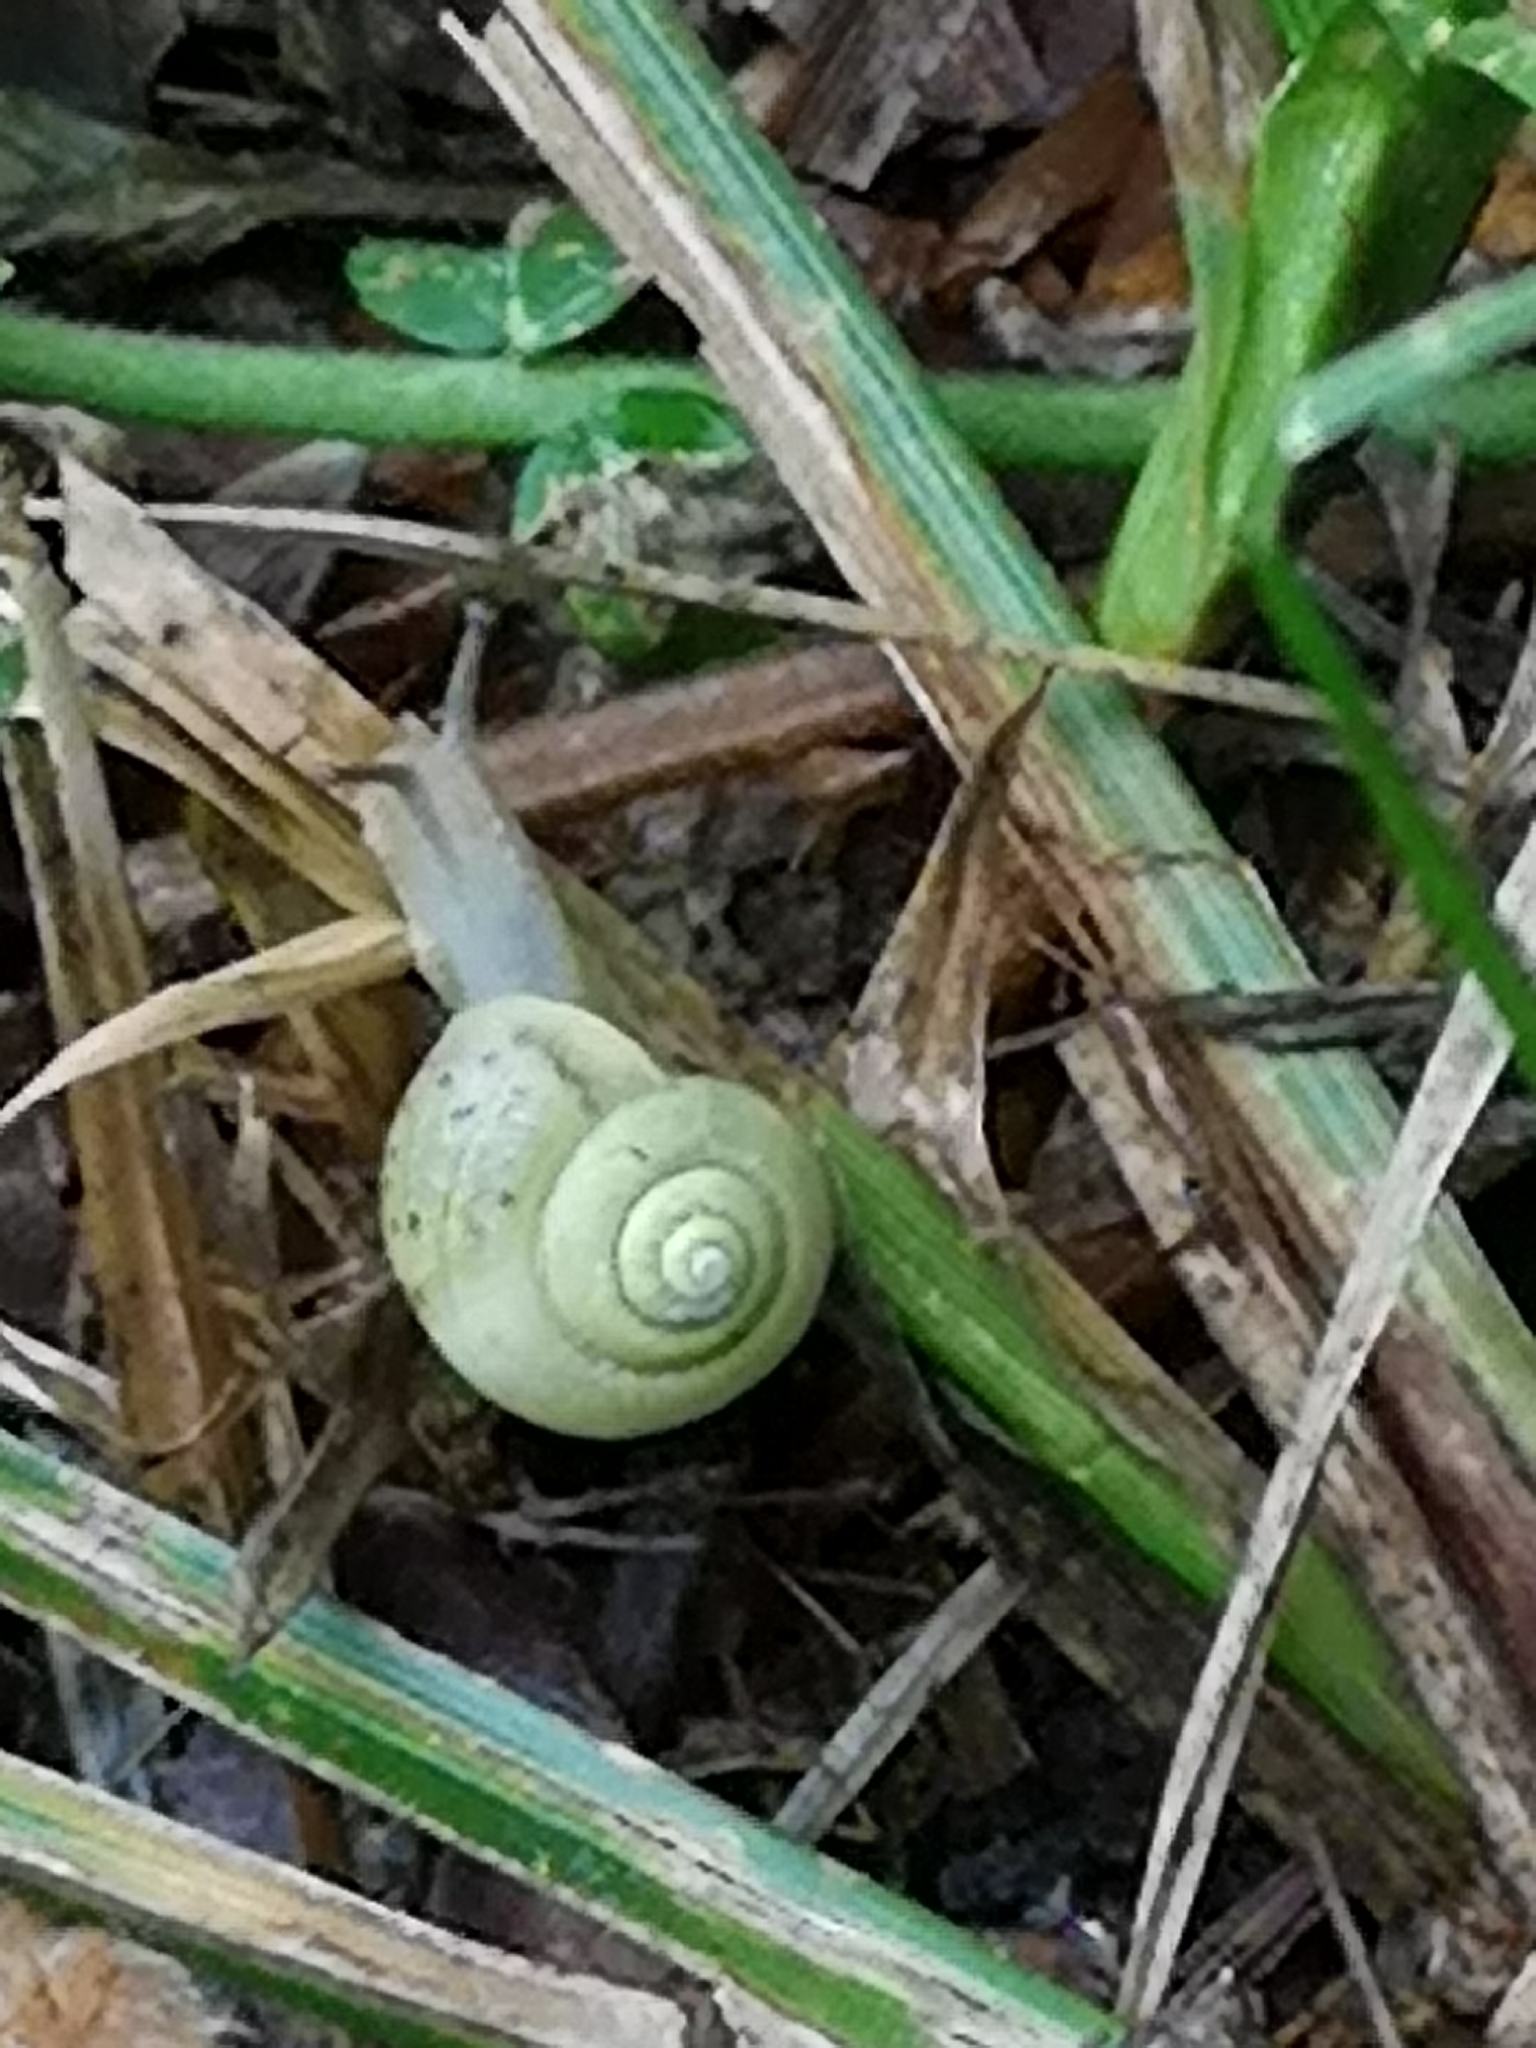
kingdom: Animalia
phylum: Mollusca
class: Gastropoda
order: Stylommatophora
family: Camaenidae
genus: Fruticicola
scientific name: Fruticicola fruticum
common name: Bush snail
